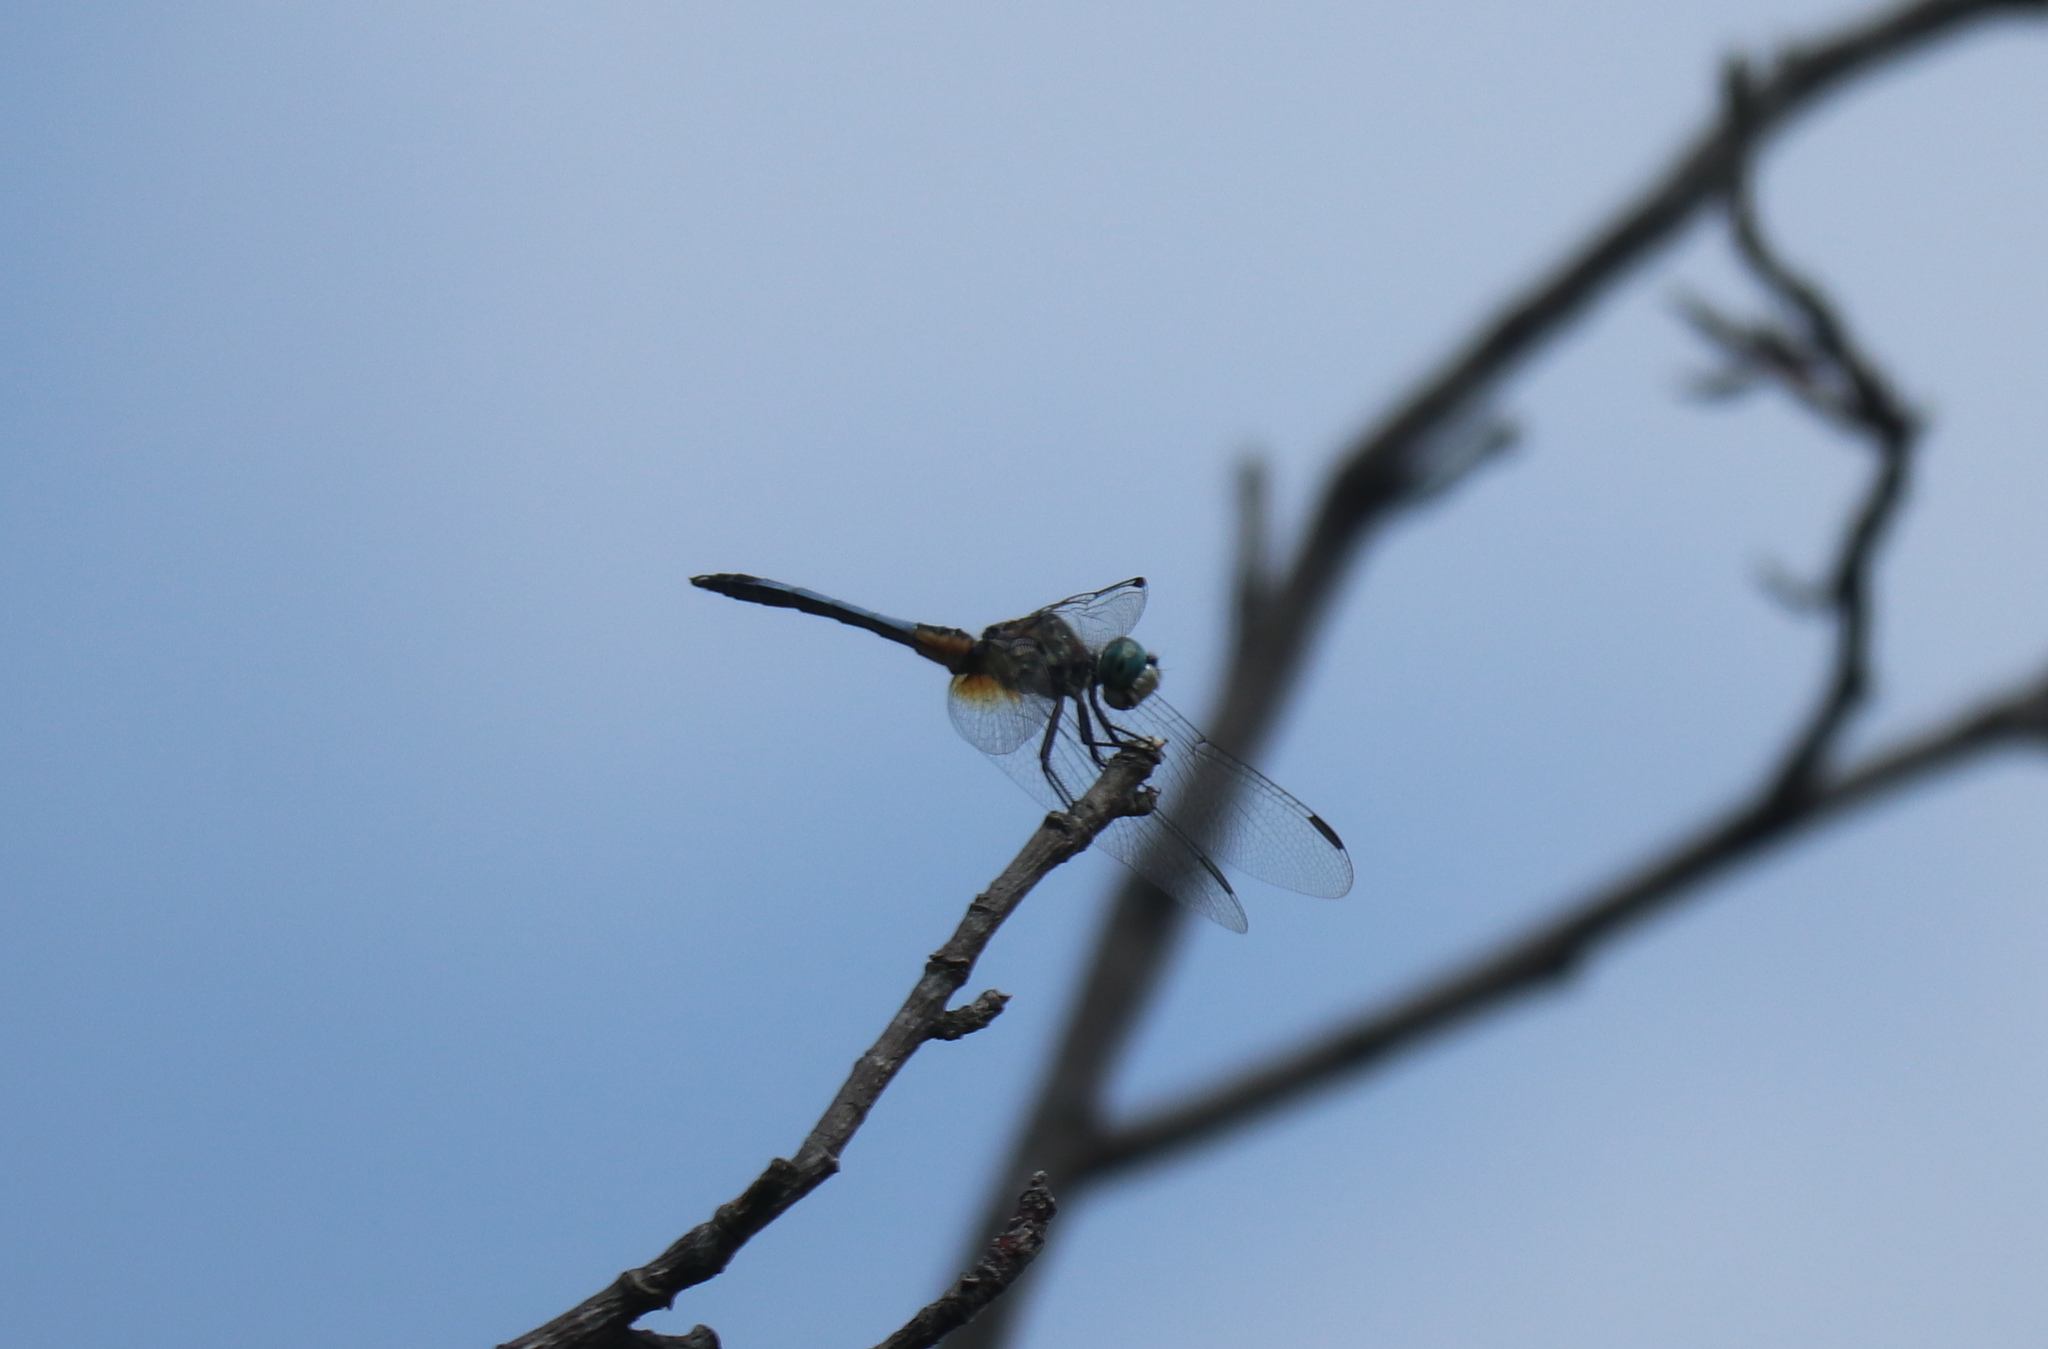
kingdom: Animalia
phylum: Arthropoda
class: Insecta
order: Odonata
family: Libellulidae
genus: Pachydiplax
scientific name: Pachydiplax longipennis
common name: Blue dasher
